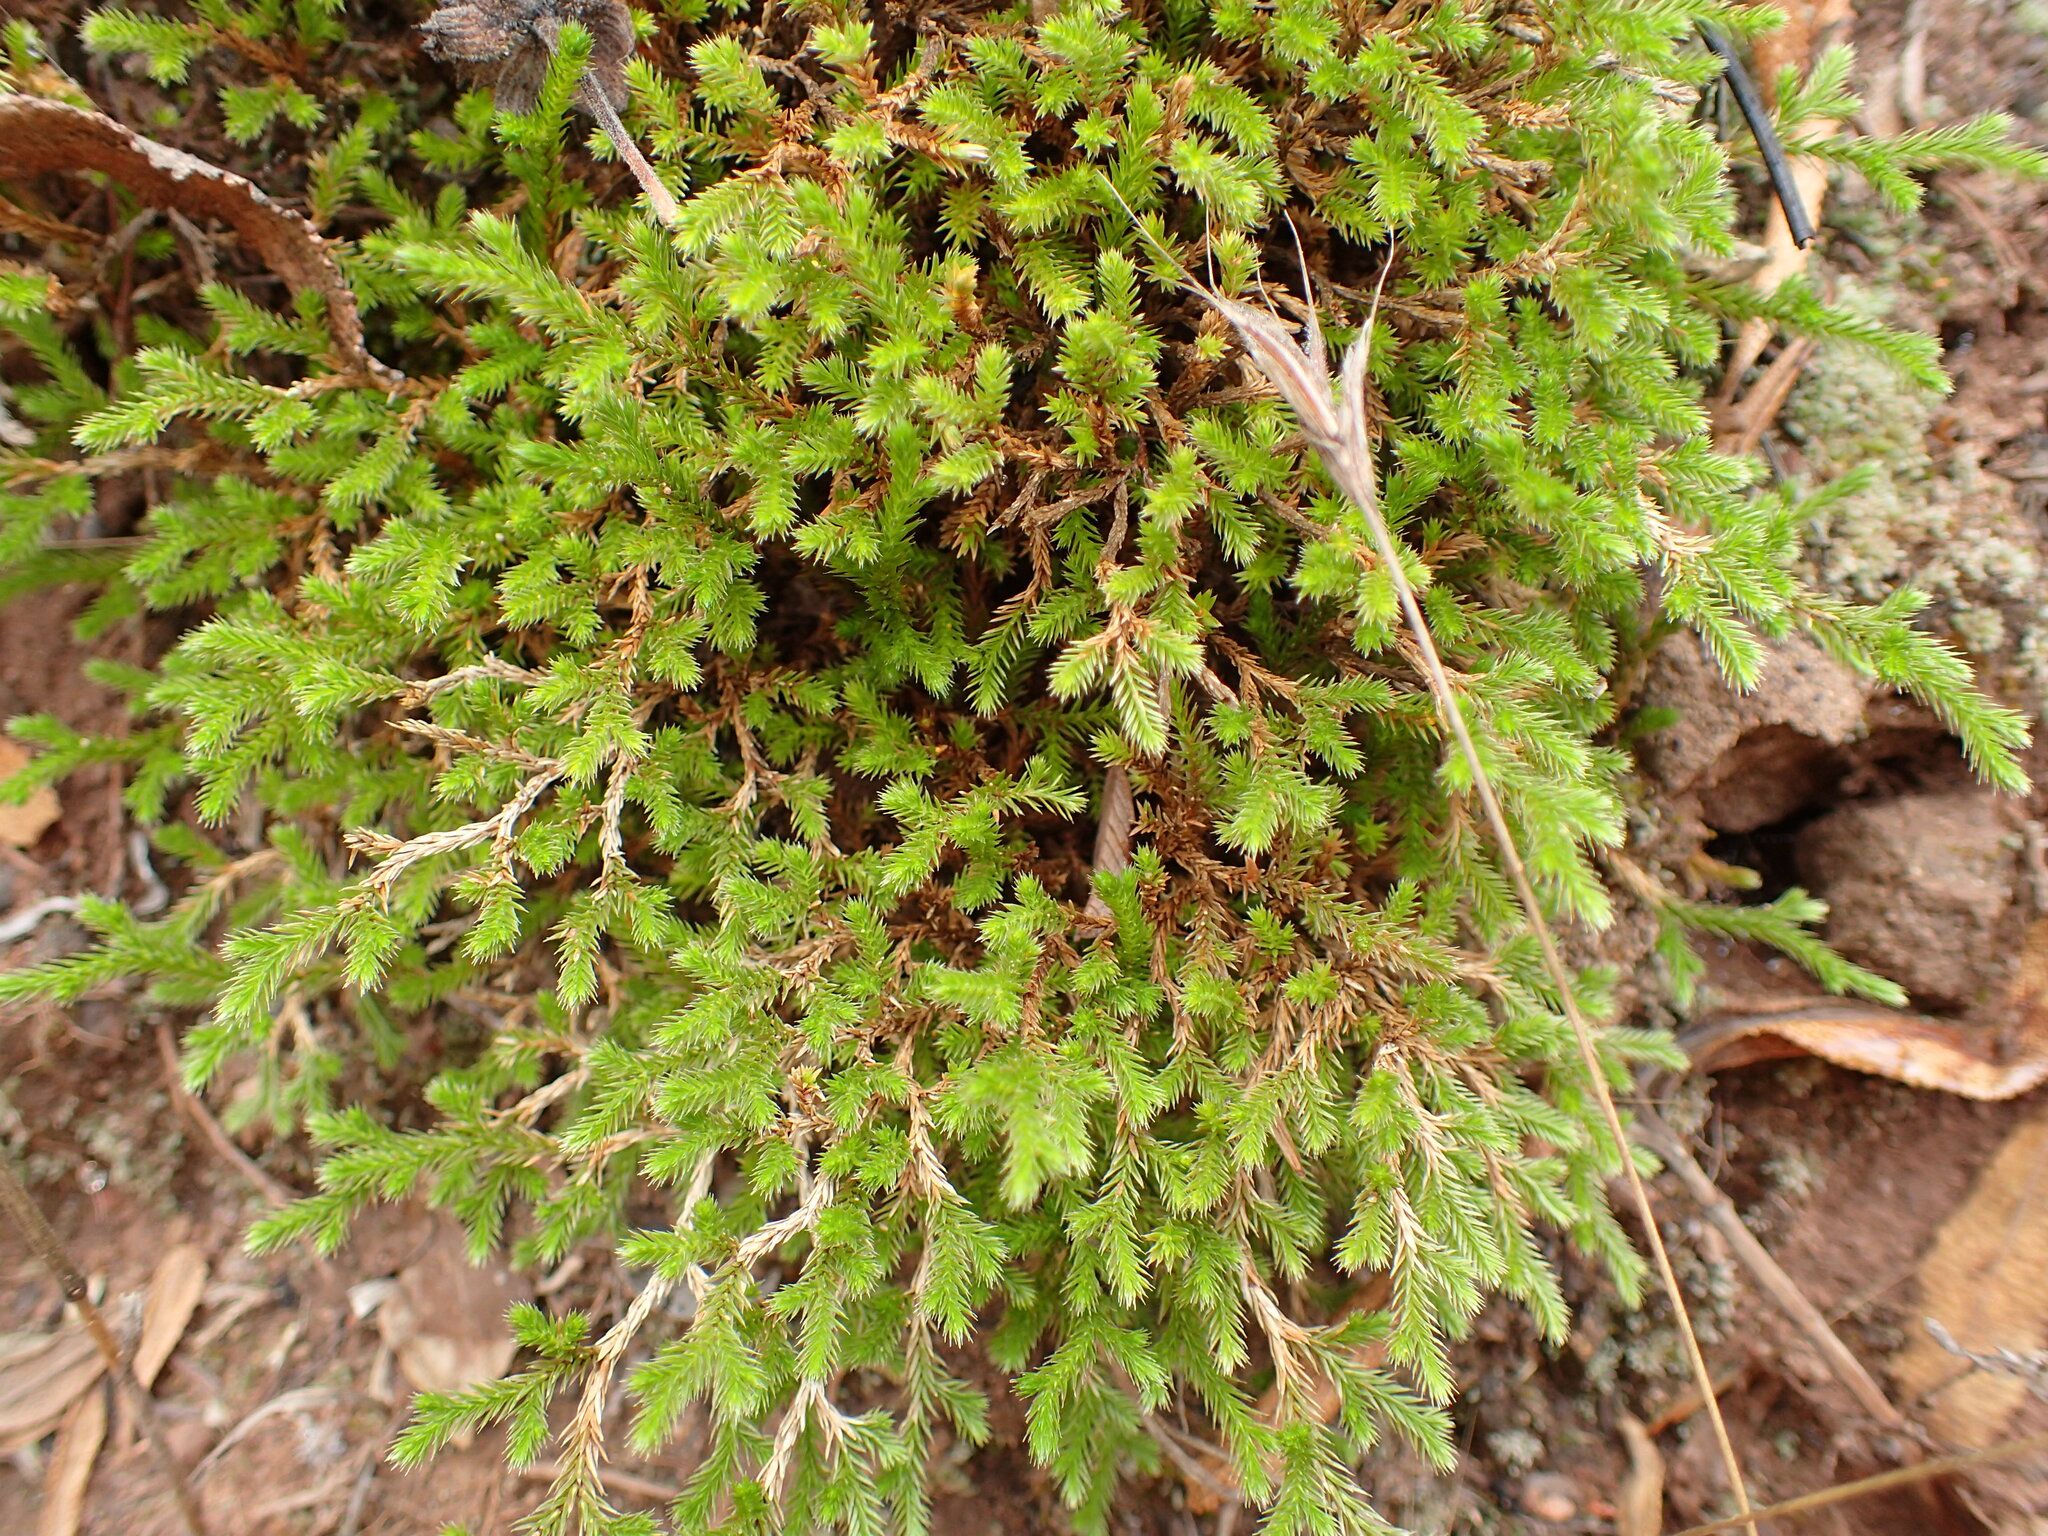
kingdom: Plantae
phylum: Tracheophyta
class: Lycopodiopsida
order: Selaginellales
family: Selaginellaceae
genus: Selaginella
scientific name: Selaginella bigelovii
